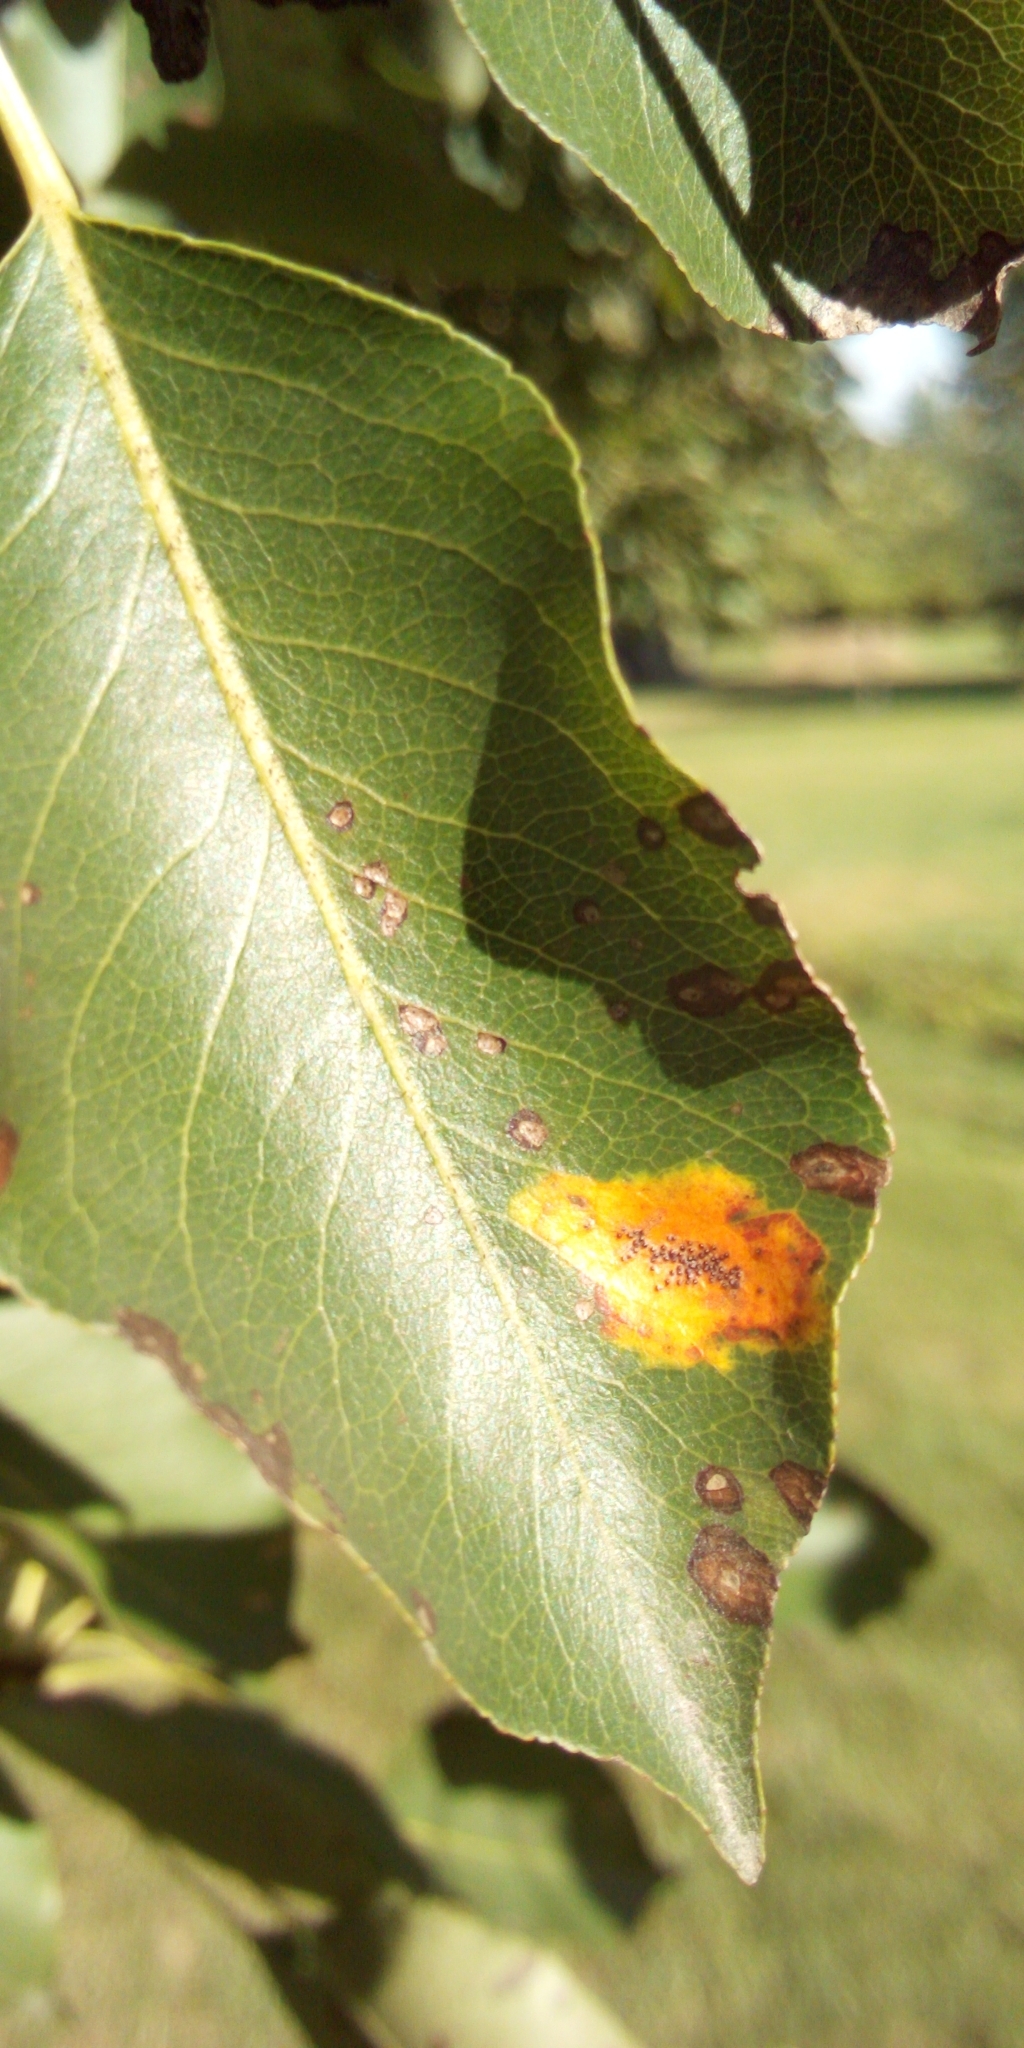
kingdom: Fungi
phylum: Basidiomycota
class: Pucciniomycetes
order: Pucciniales
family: Gymnosporangiaceae
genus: Gymnosporangium
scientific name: Gymnosporangium
